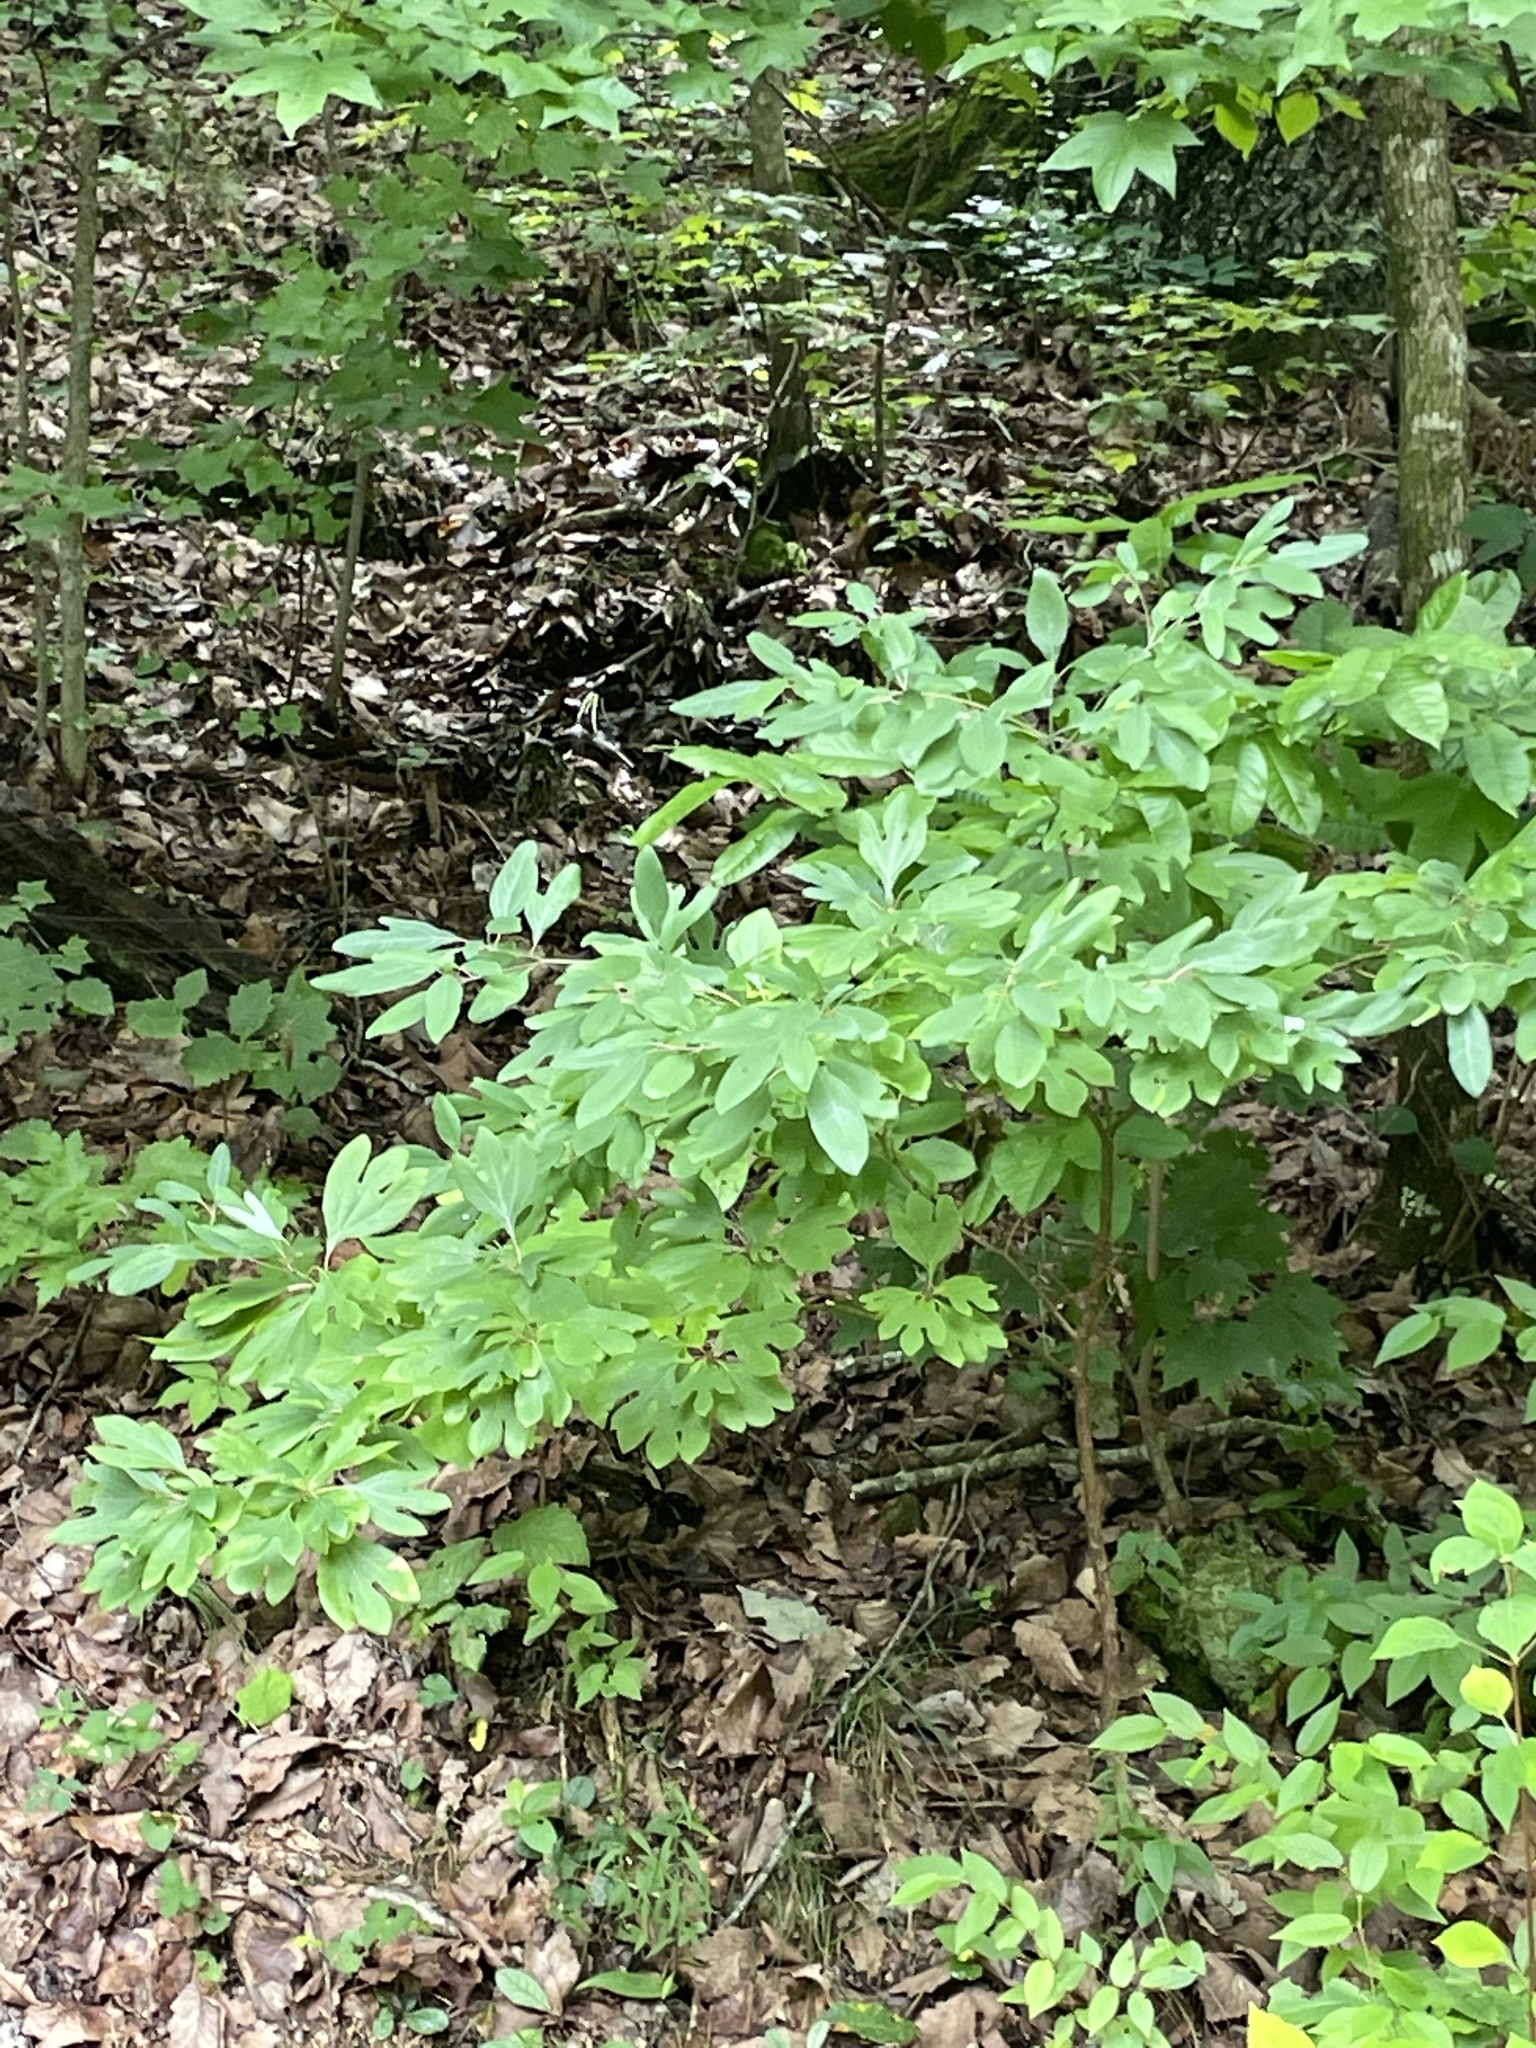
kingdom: Plantae
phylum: Tracheophyta
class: Magnoliopsida
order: Laurales
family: Lauraceae
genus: Sassafras
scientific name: Sassafras albidum
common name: Sassafras
